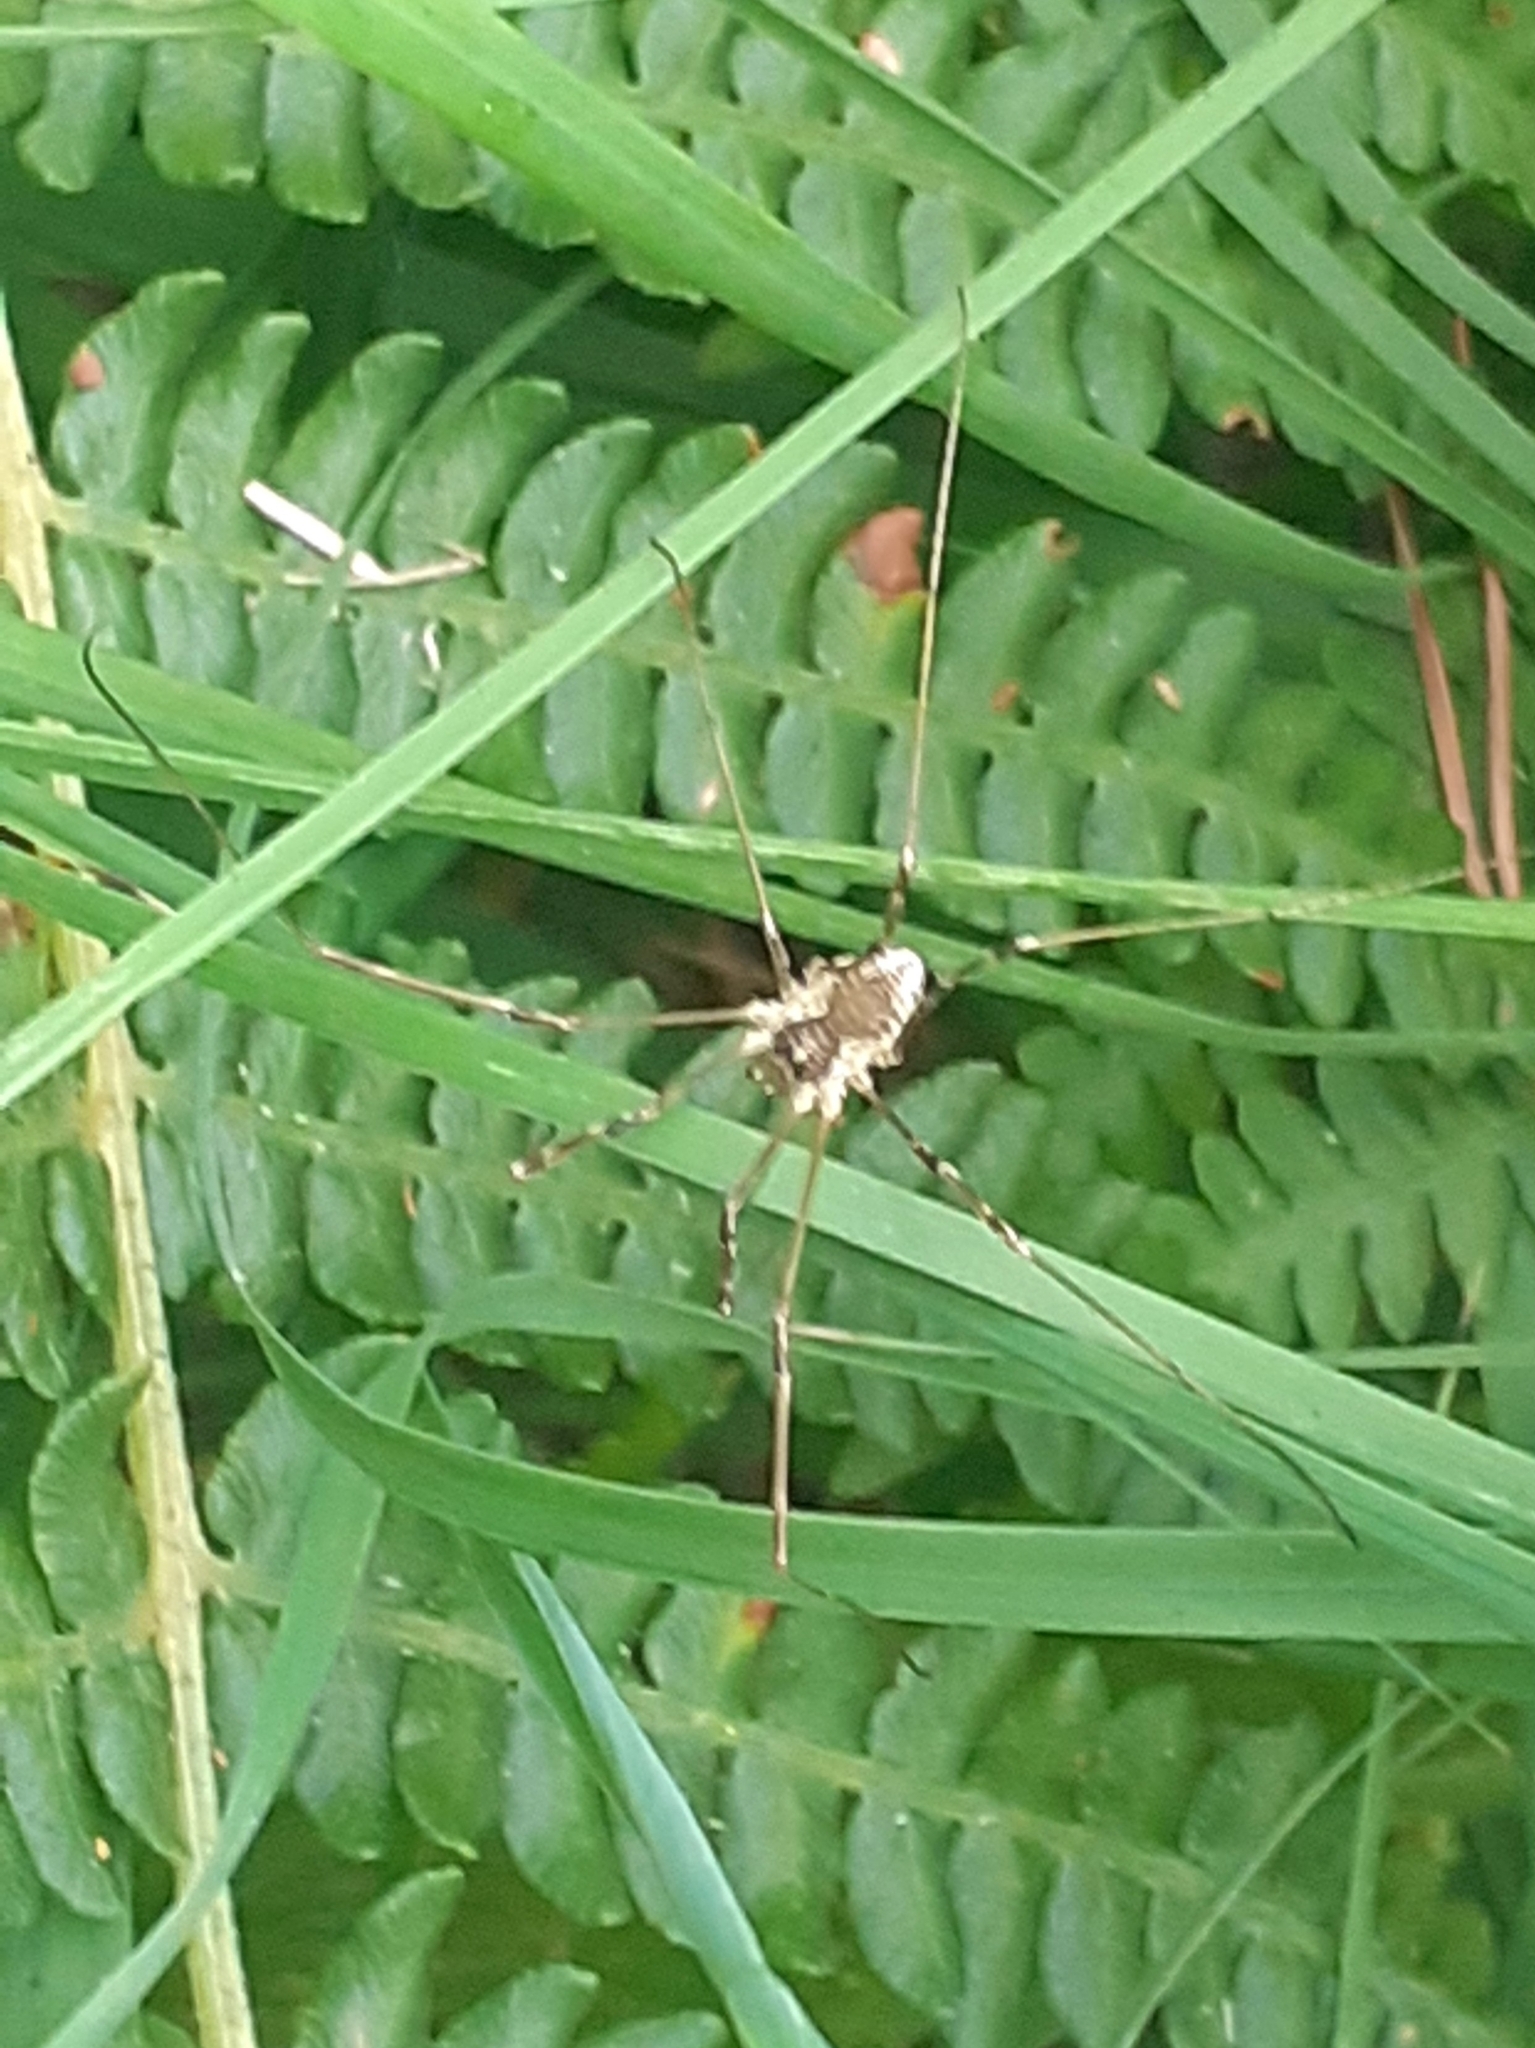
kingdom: Animalia
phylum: Arthropoda
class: Arachnida
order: Opiliones
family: Phalangiidae
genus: Mitopus
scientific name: Mitopus morio
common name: Saddleback harvestman
